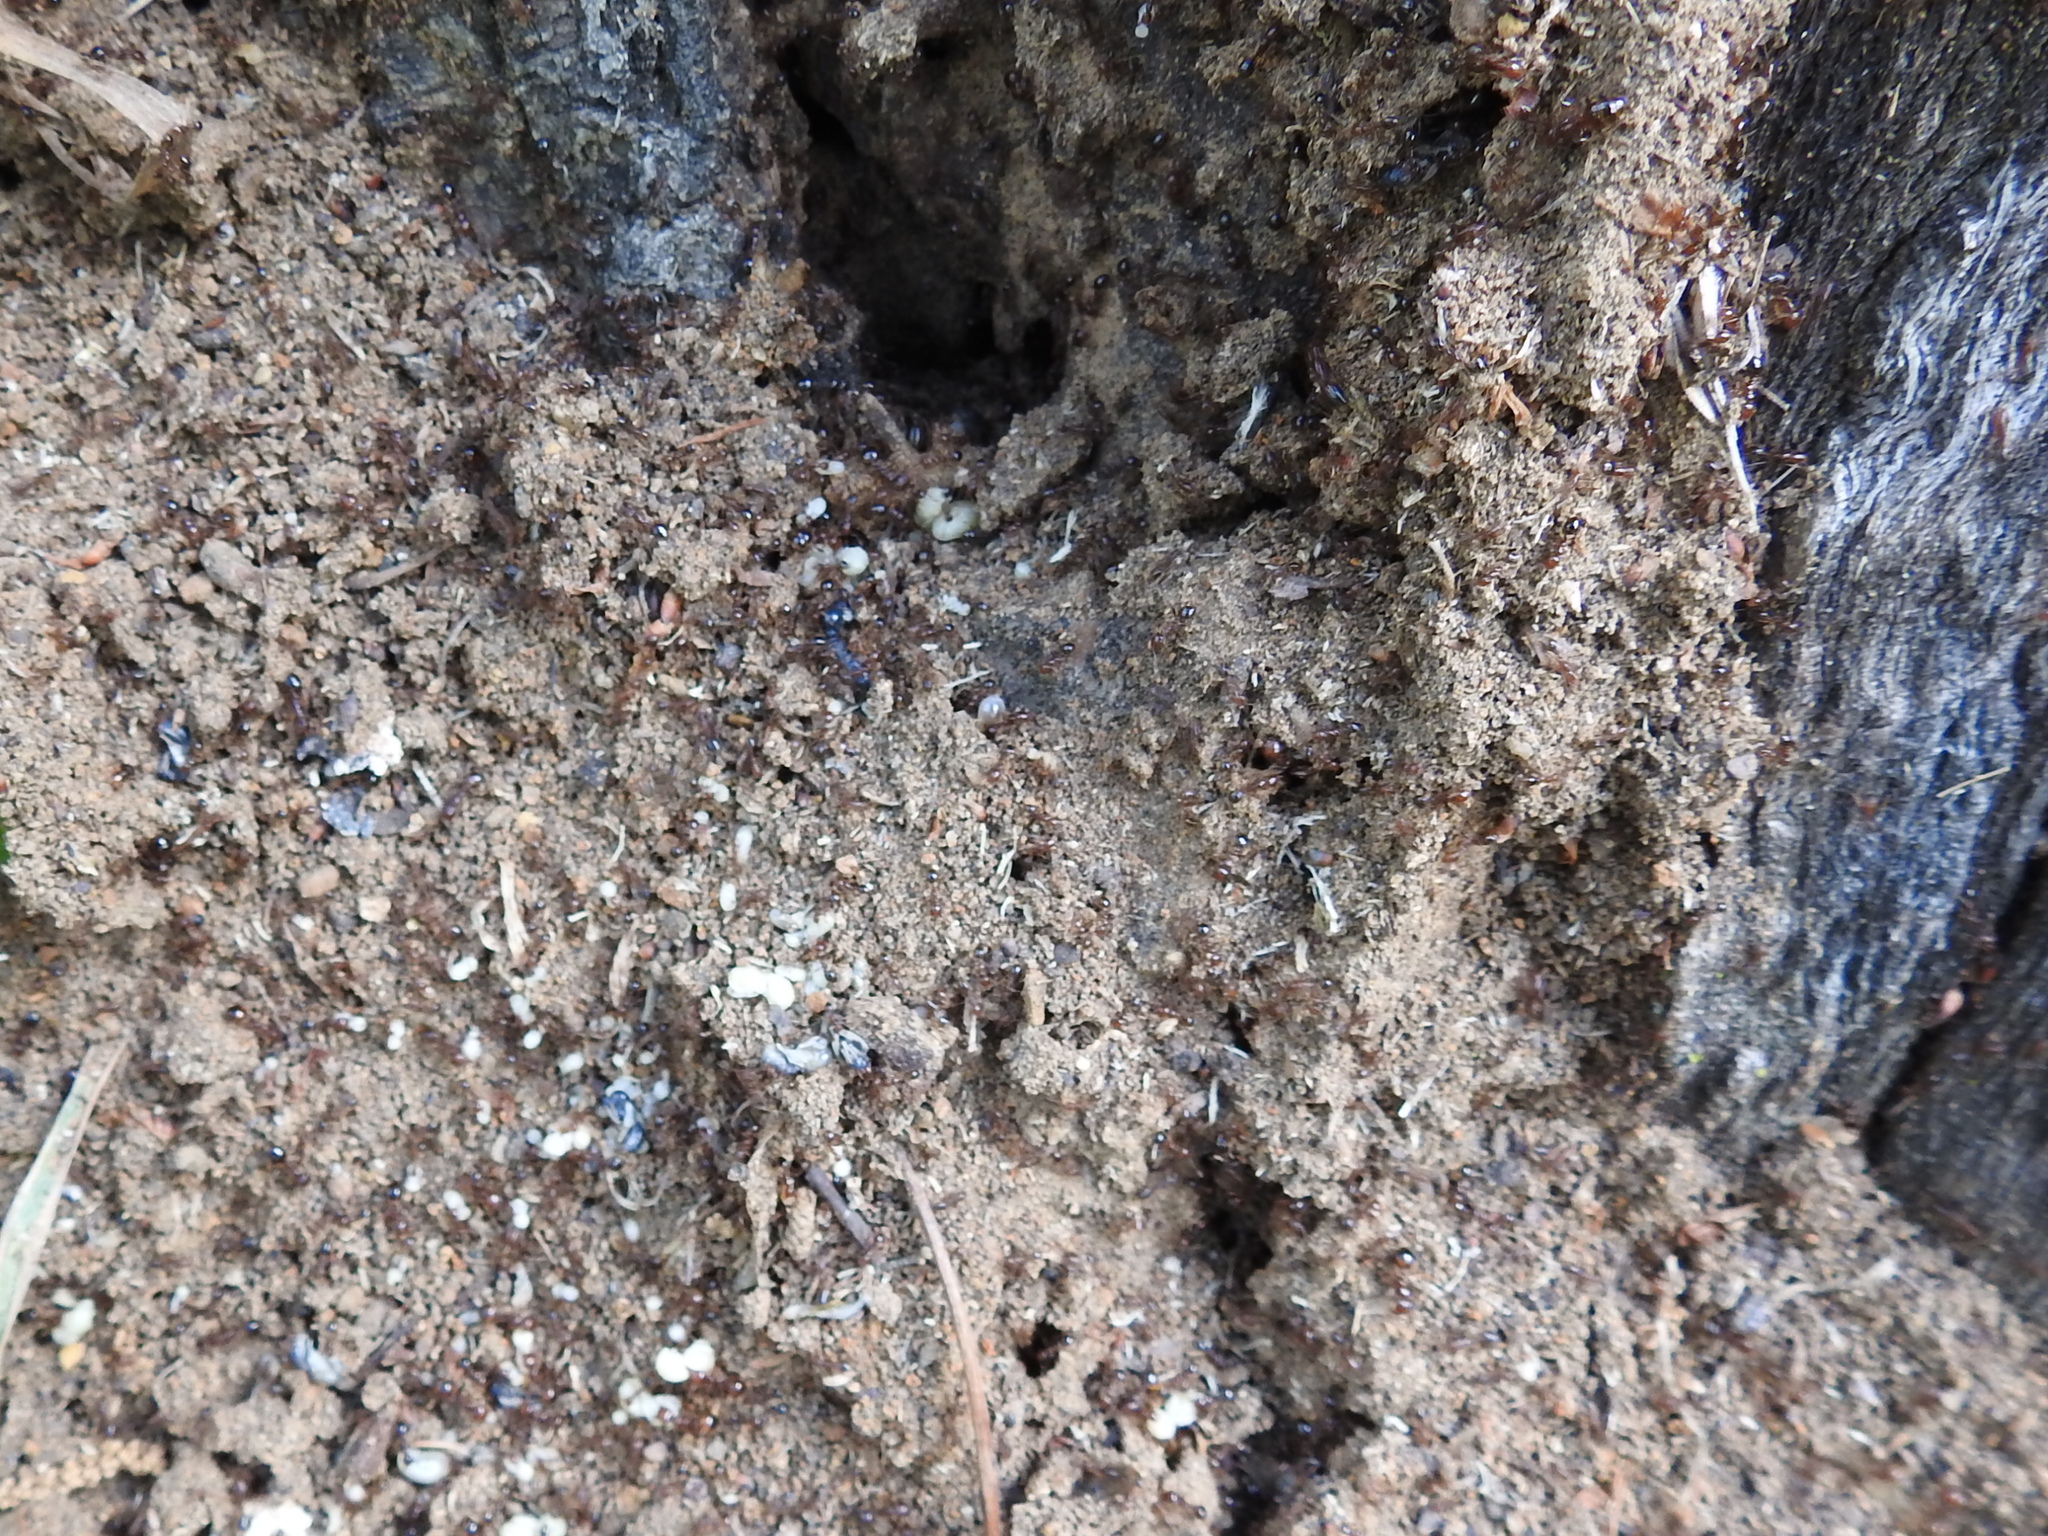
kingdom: Animalia
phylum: Arthropoda
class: Insecta
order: Hymenoptera
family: Formicidae
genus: Solenopsis
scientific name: Solenopsis invicta
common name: Red imported fire ant
